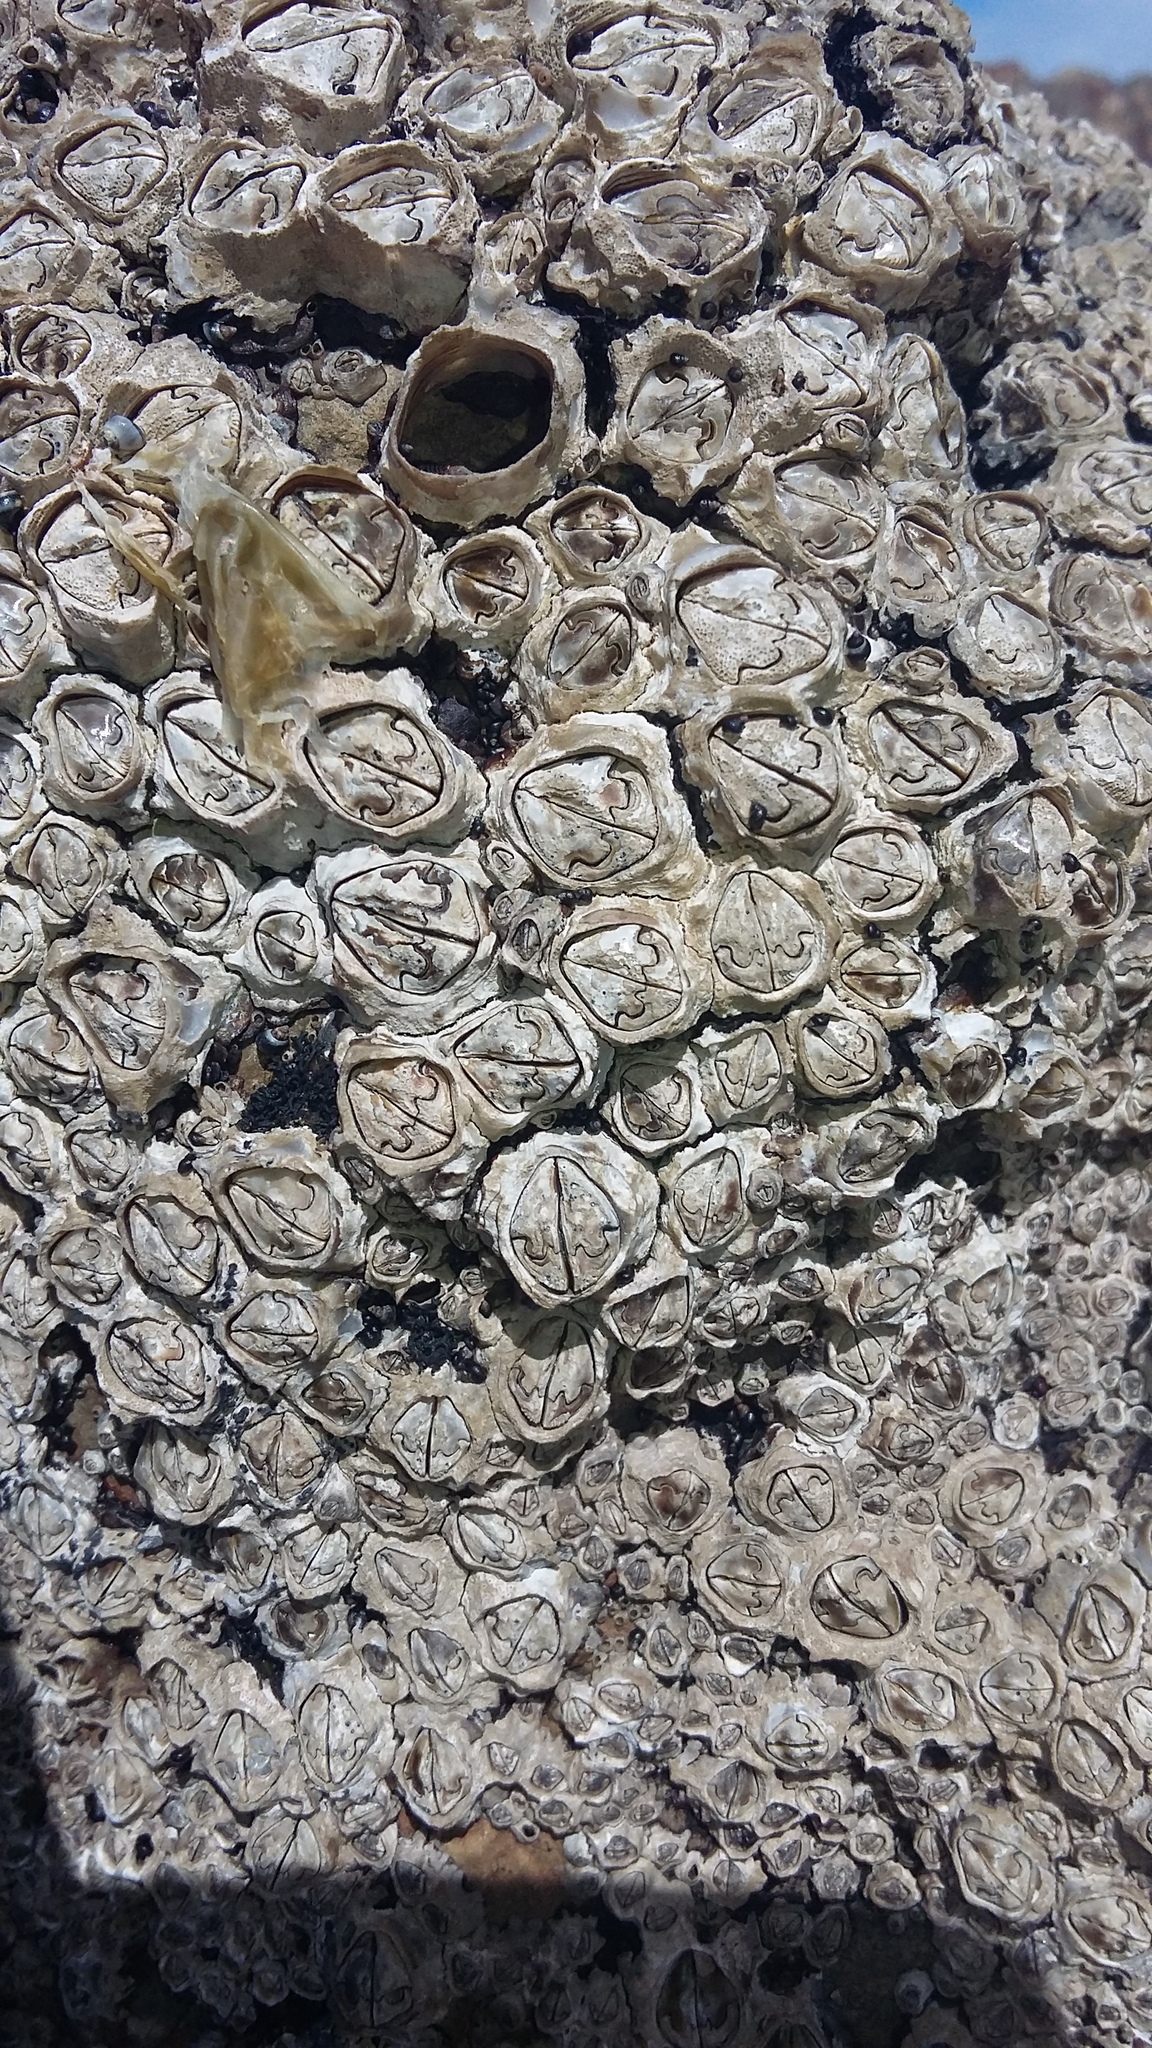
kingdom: Animalia
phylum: Arthropoda
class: Maxillopoda
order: Sessilia
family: Chthamalidae
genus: Chamaesipho
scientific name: Chamaesipho brunnea
